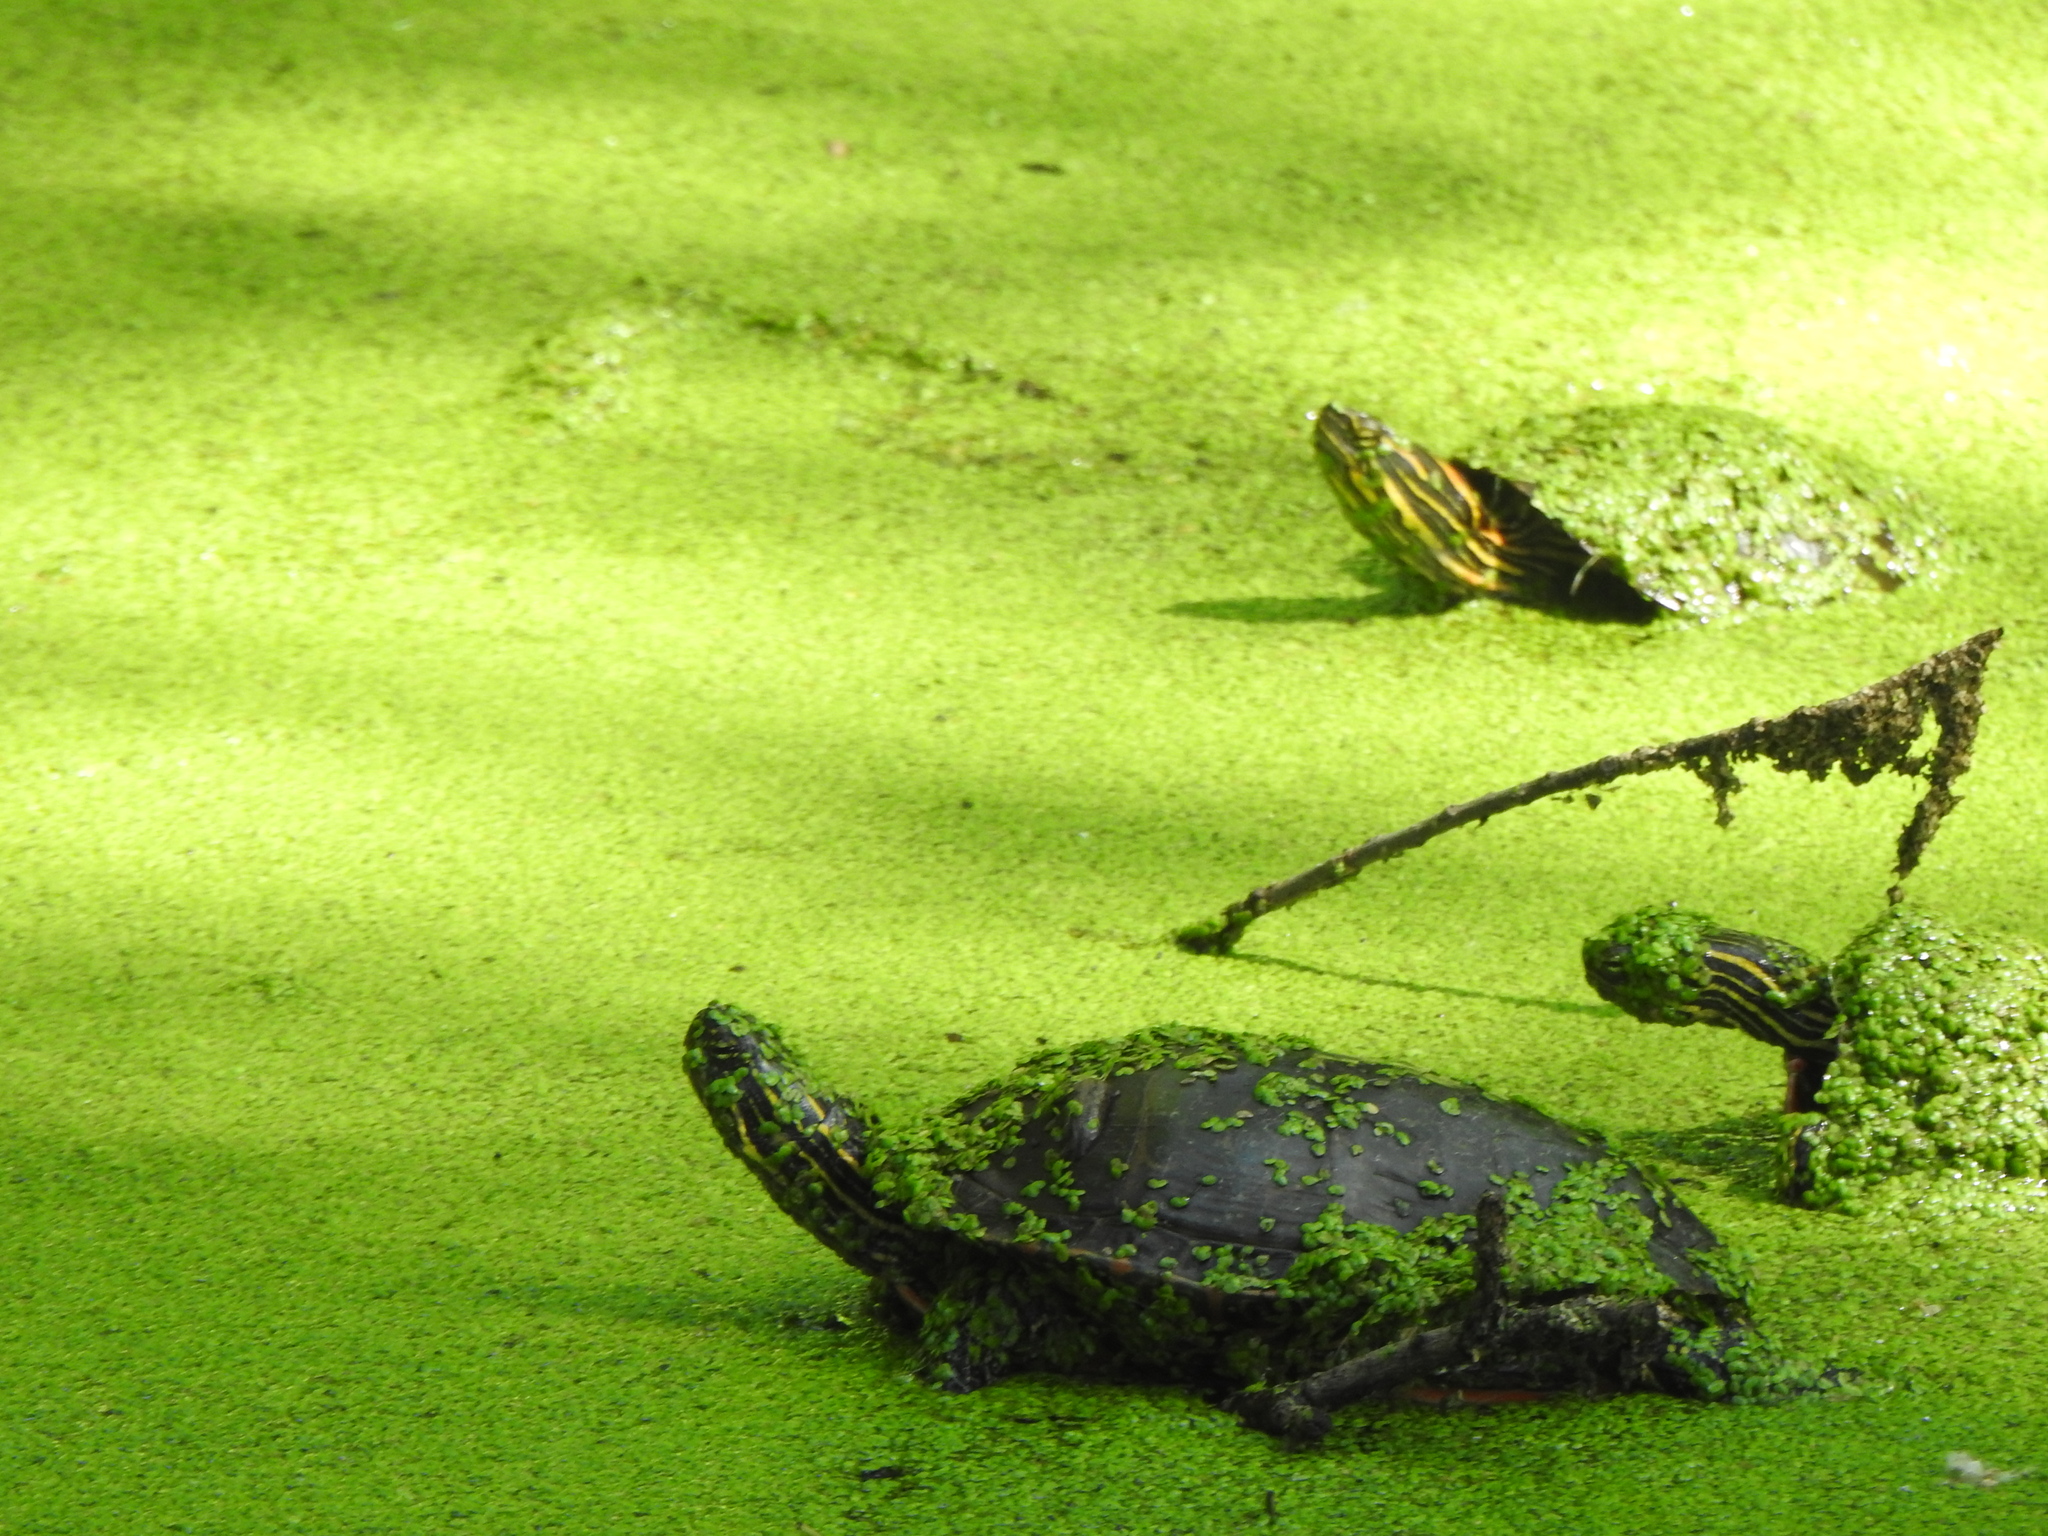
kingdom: Animalia
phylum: Chordata
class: Testudines
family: Emydidae
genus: Chrysemys
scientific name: Chrysemys picta
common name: Painted turtle
